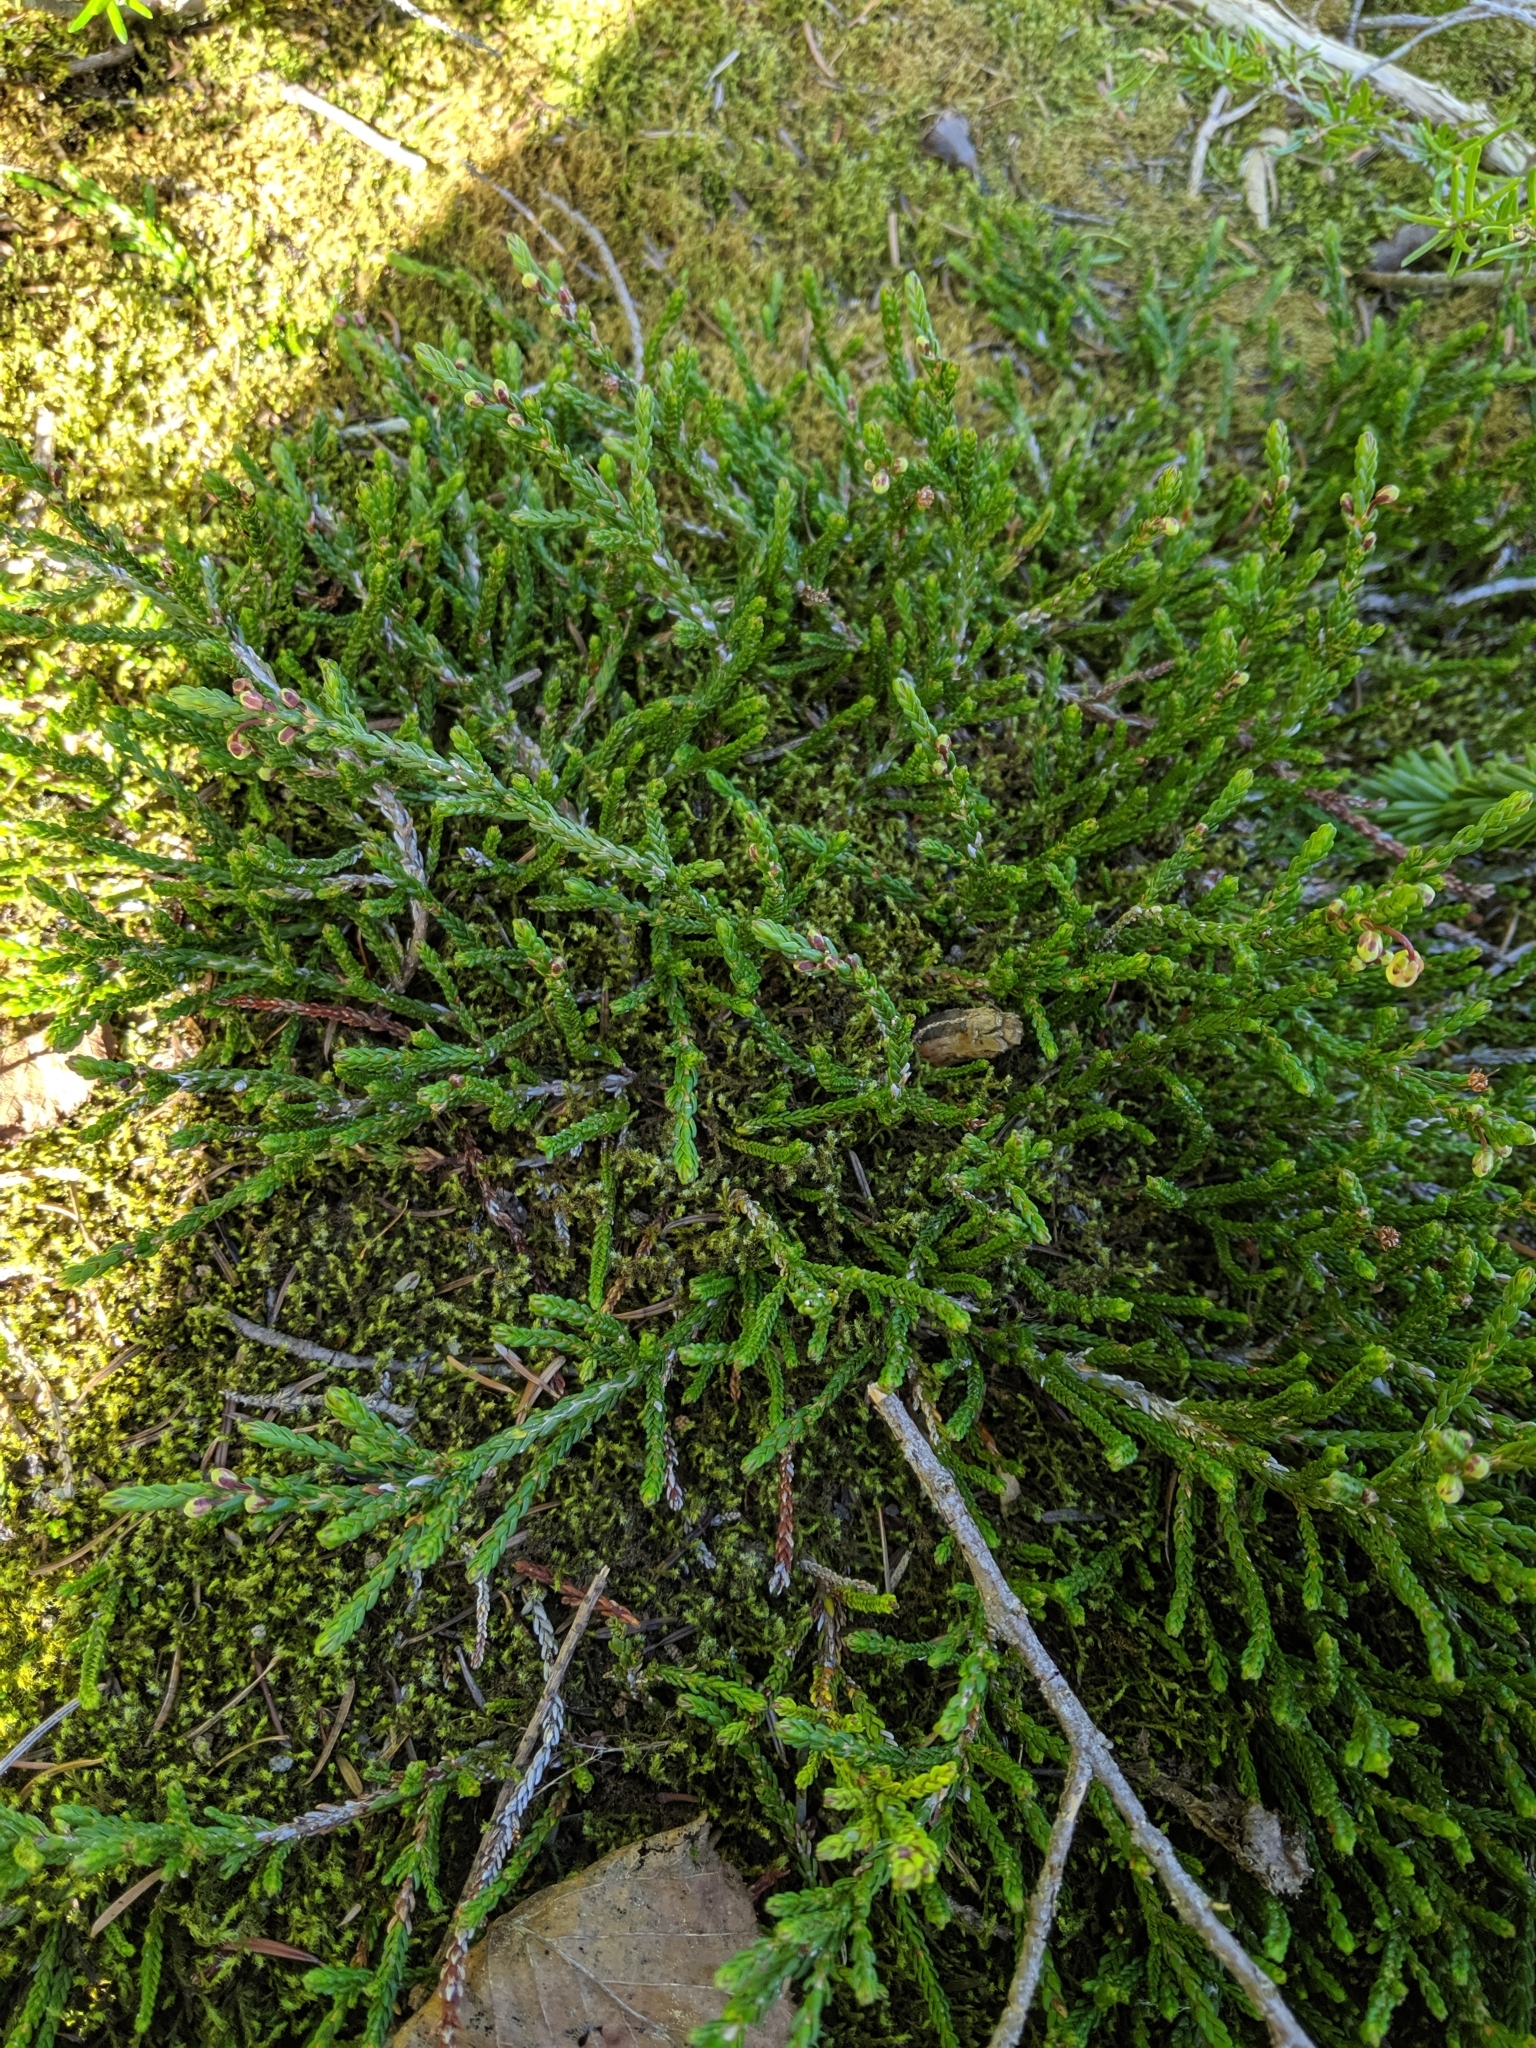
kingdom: Plantae
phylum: Tracheophyta
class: Magnoliopsida
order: Ericales
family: Ericaceae
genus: Cassiope
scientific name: Cassiope mertensiana
